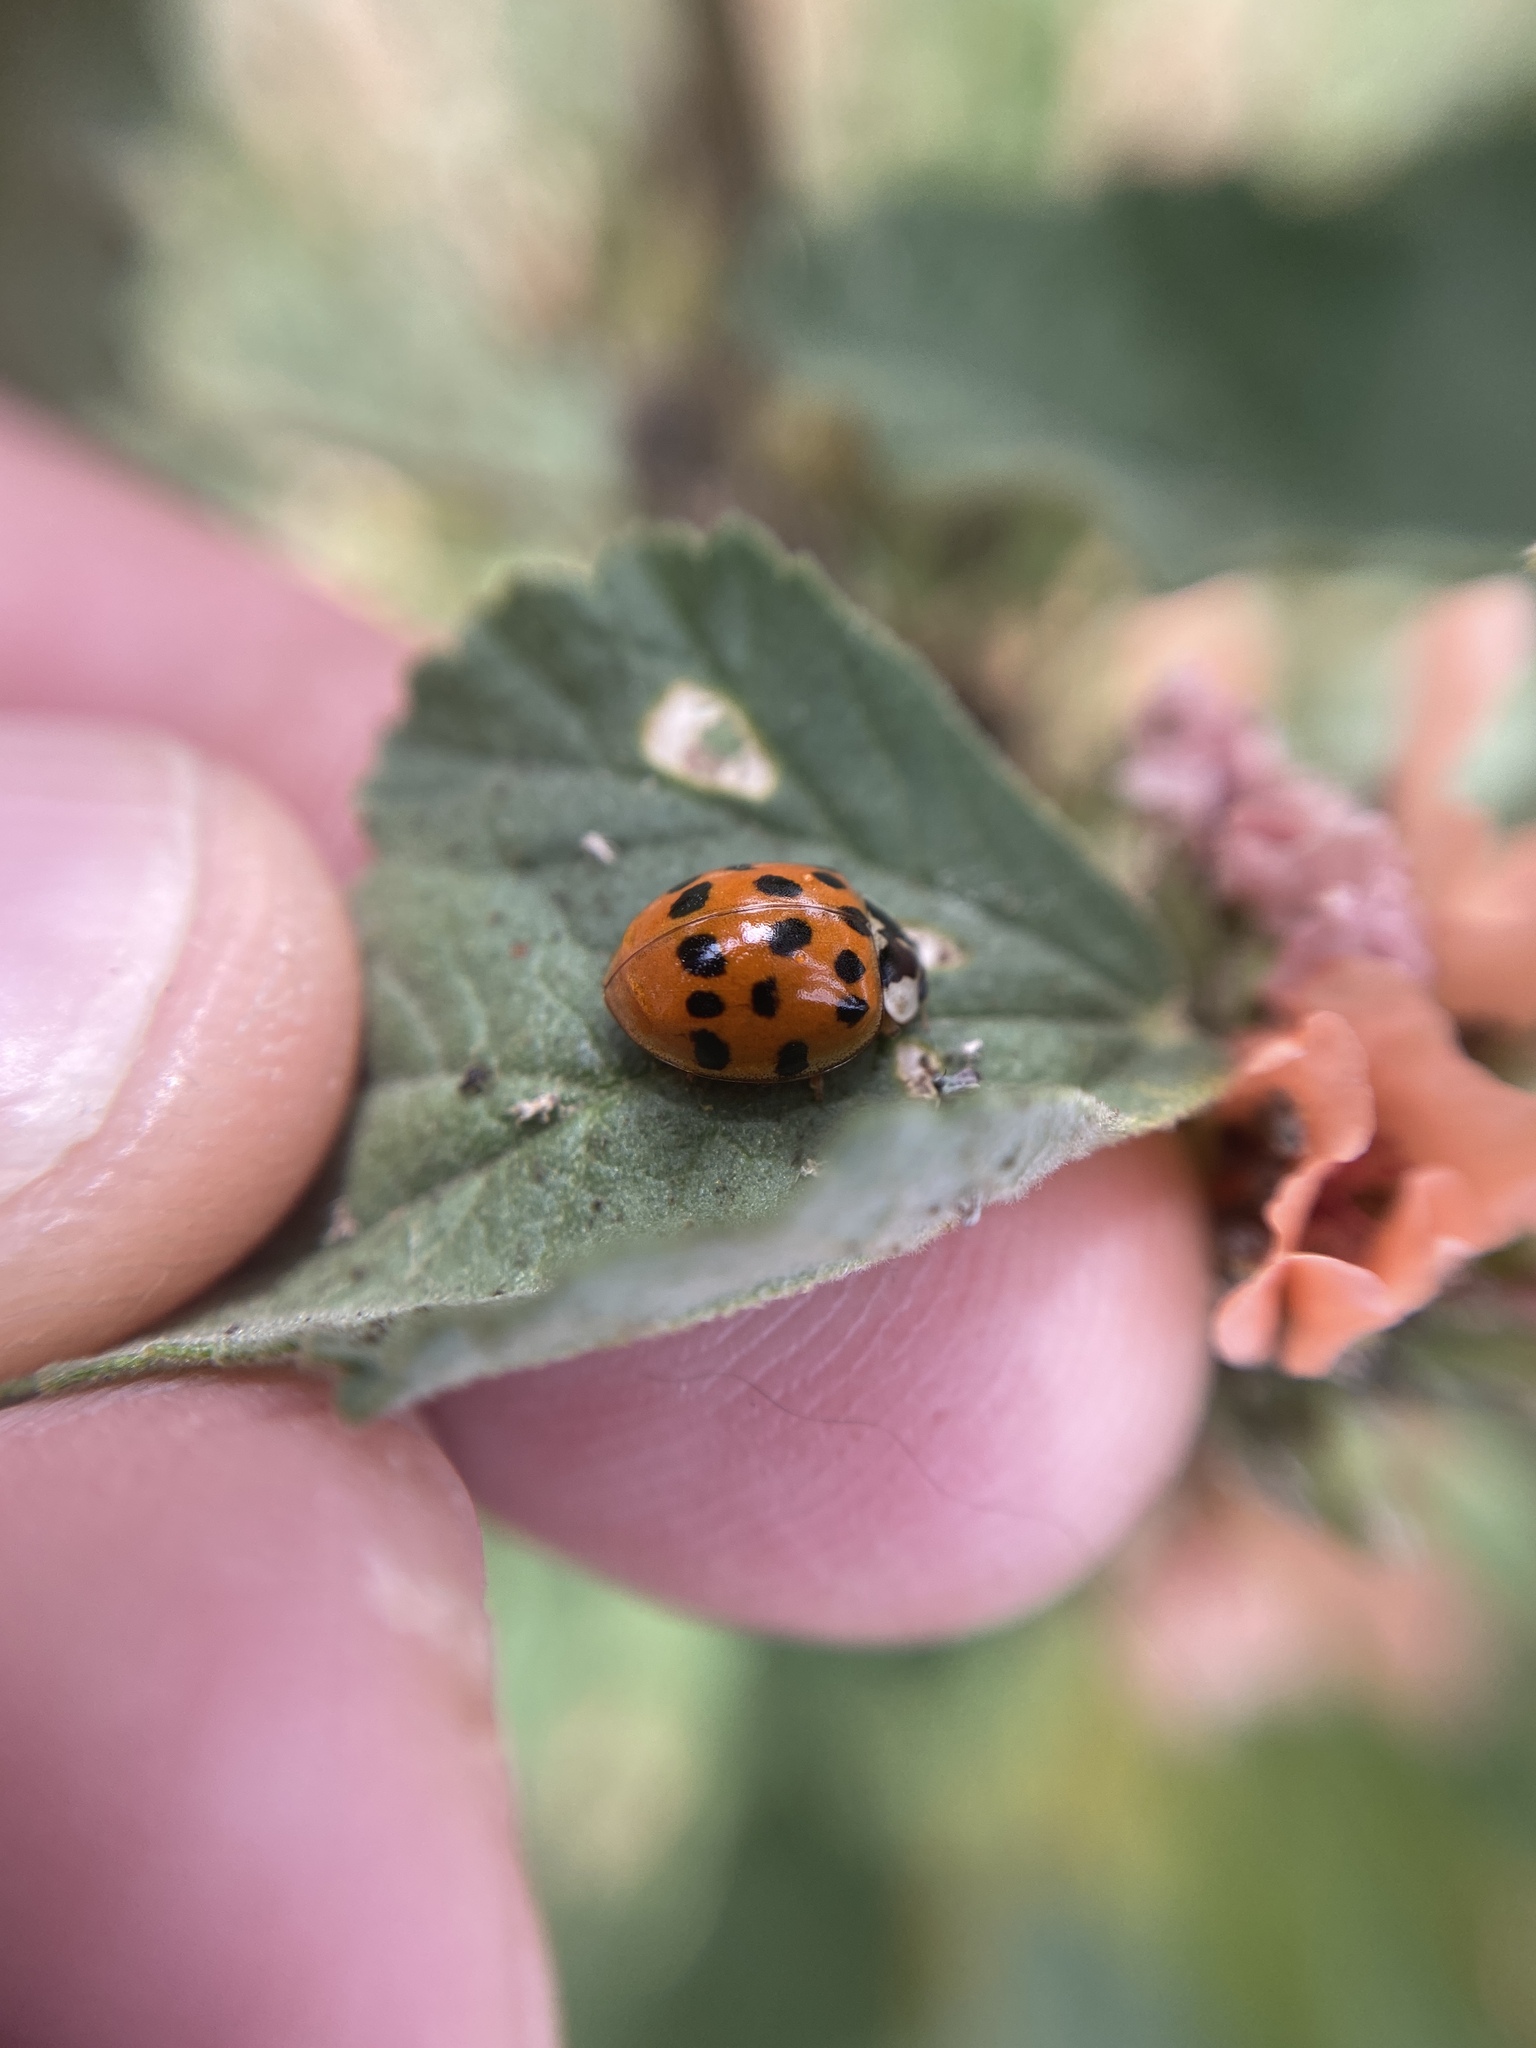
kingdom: Animalia
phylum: Arthropoda
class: Insecta
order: Coleoptera
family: Coccinellidae
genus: Harmonia
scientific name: Harmonia axyridis
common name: Harlequin ladybird
